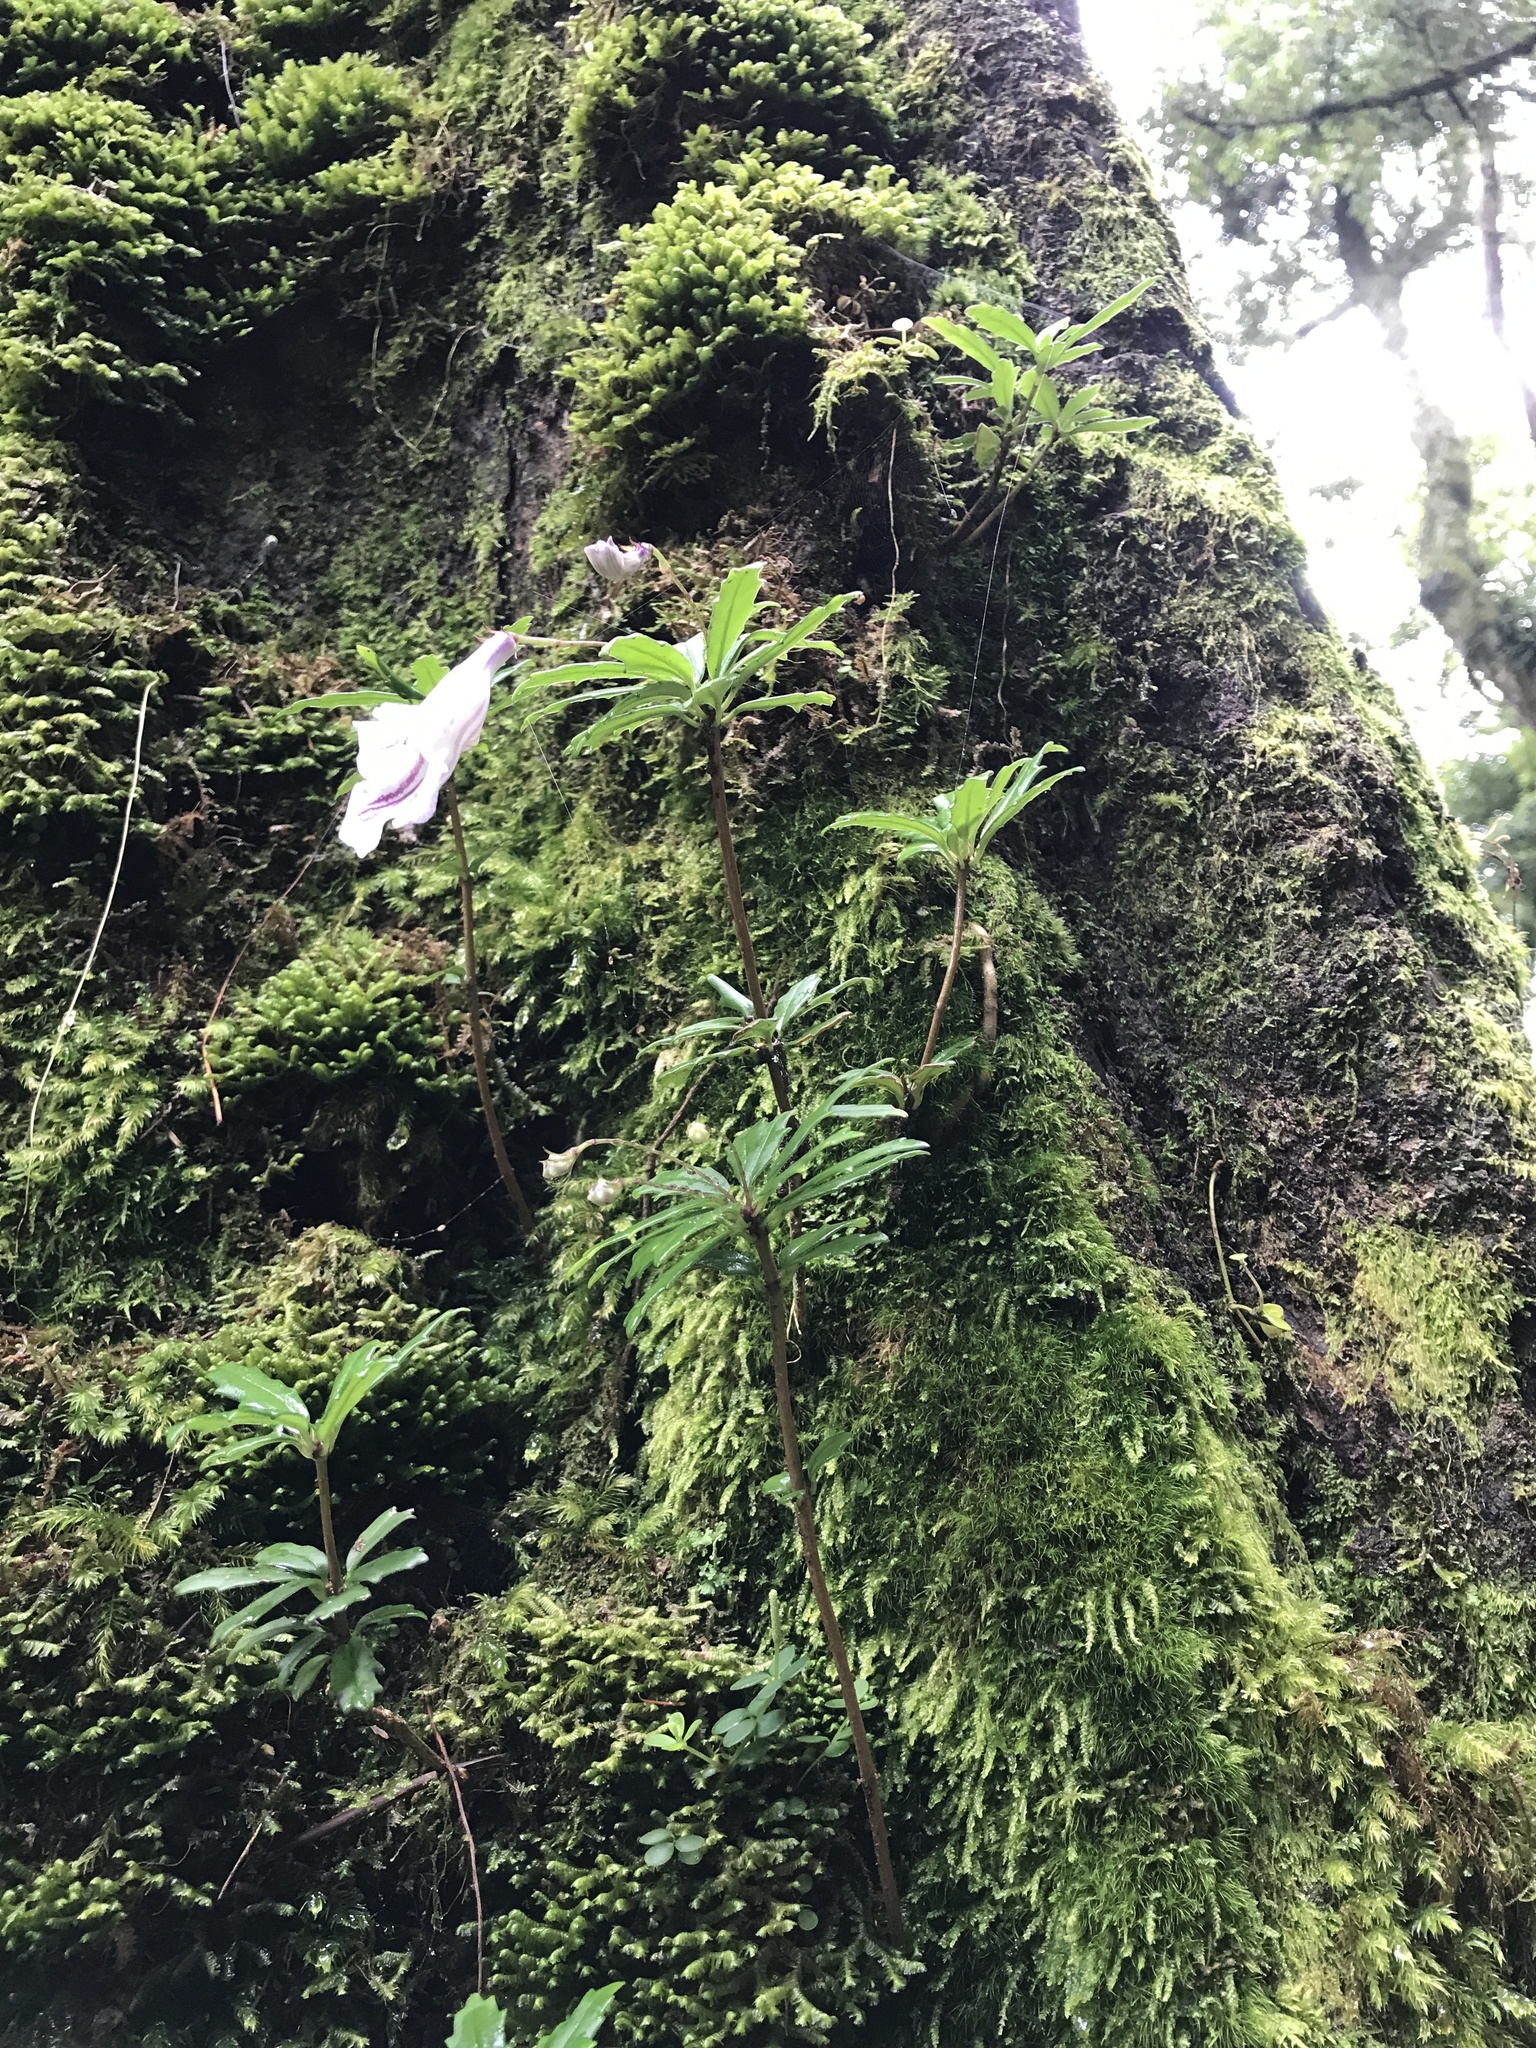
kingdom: Plantae
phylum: Tracheophyta
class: Magnoliopsida
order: Lamiales
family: Gesneriaceae
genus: Lysionotus
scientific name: Lysionotus pauciflorus
